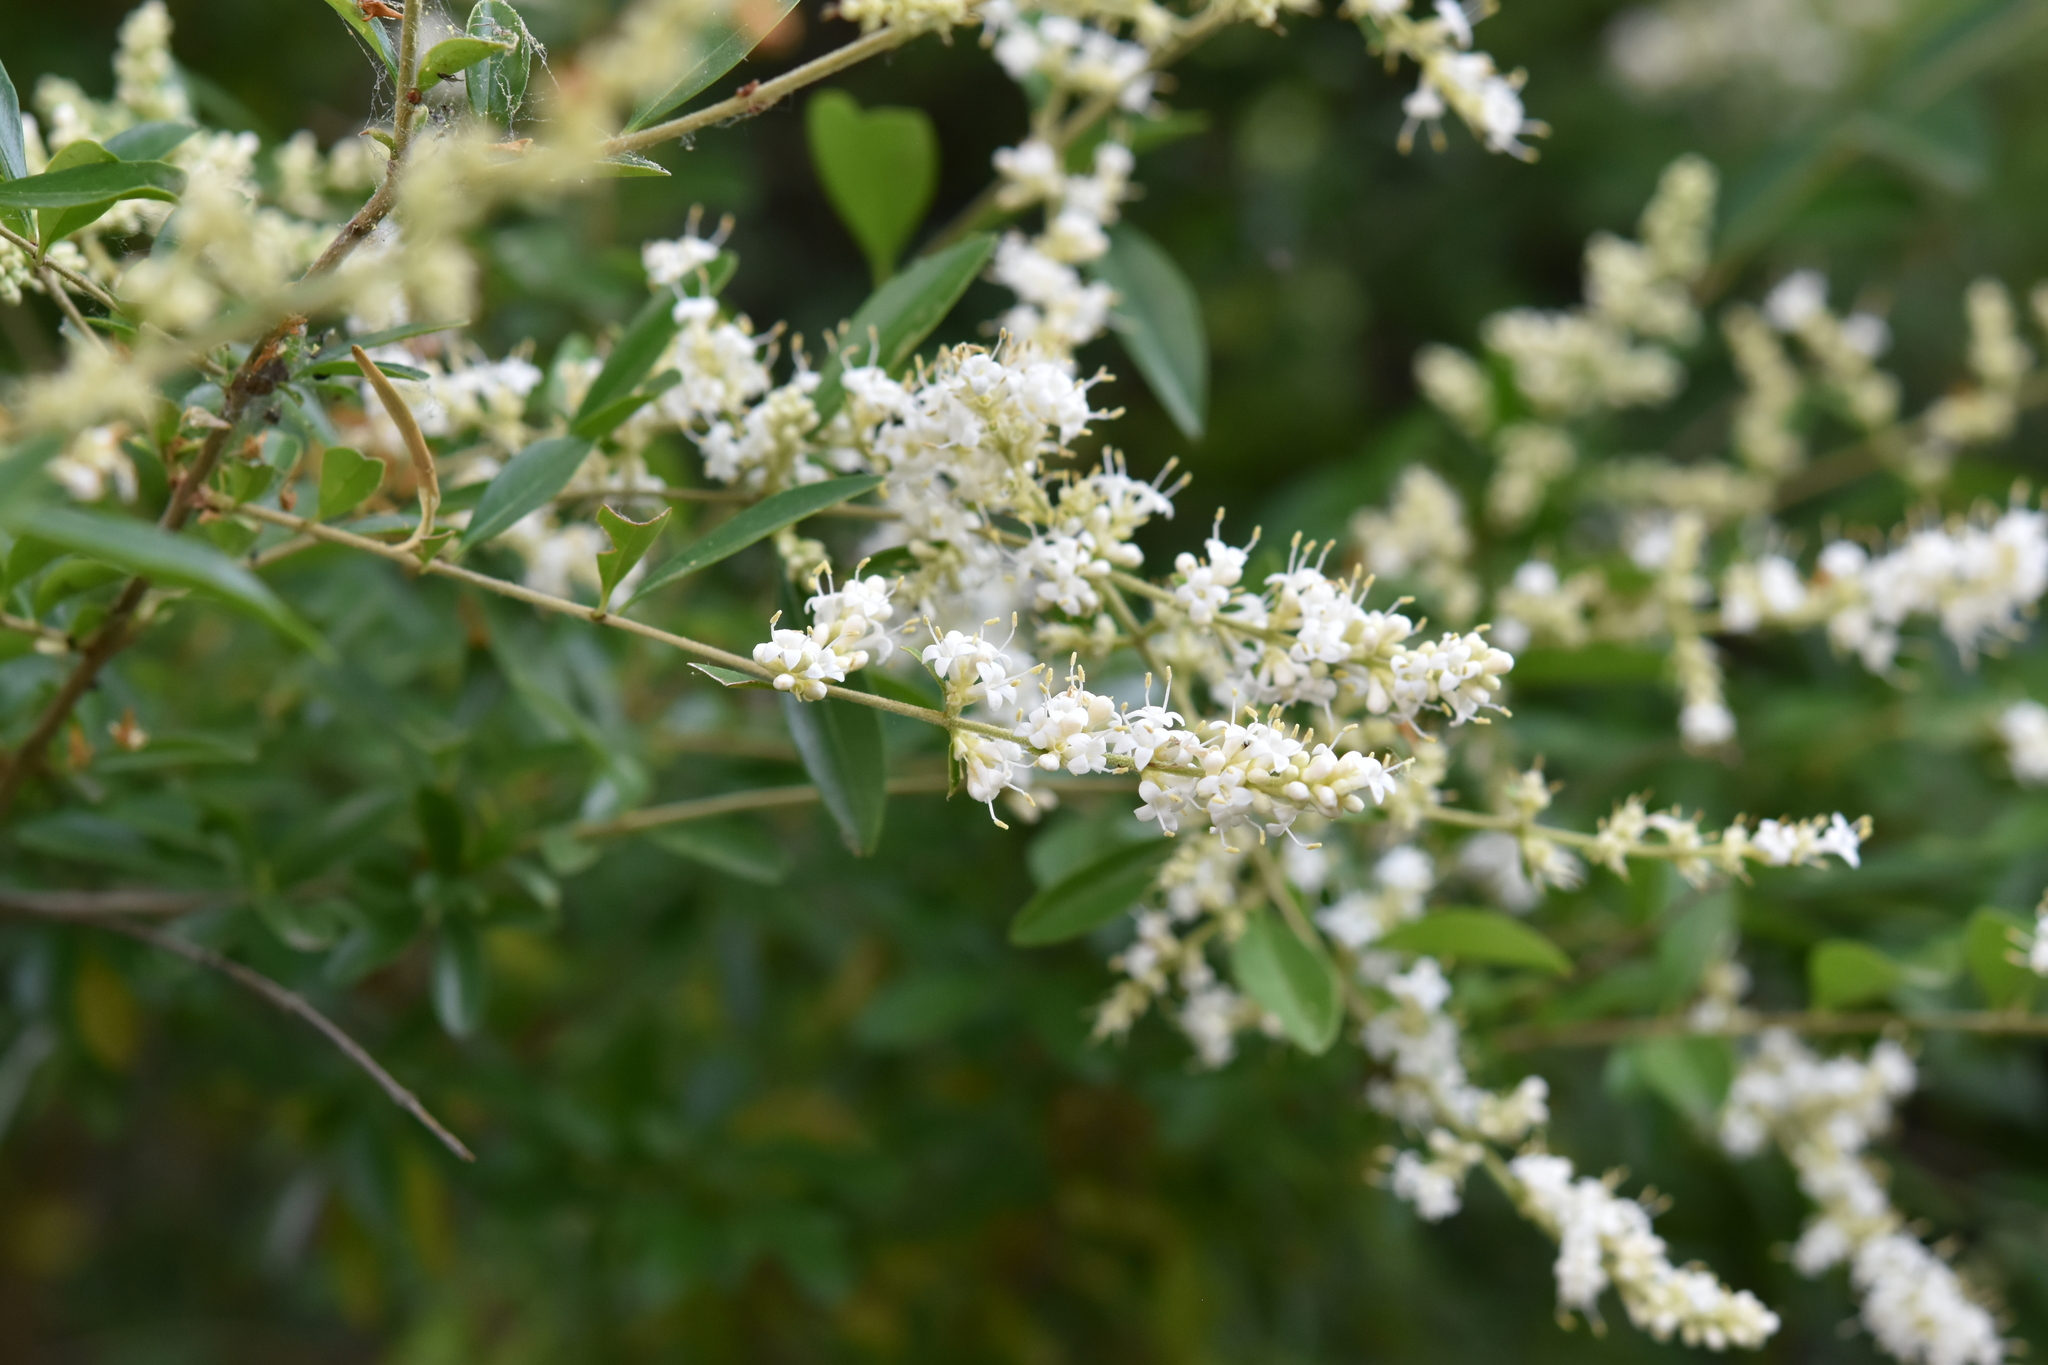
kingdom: Plantae
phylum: Tracheophyta
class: Magnoliopsida
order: Lamiales
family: Oleaceae
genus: Ligustrum
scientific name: Ligustrum quihoui
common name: Waxyleaf privet
